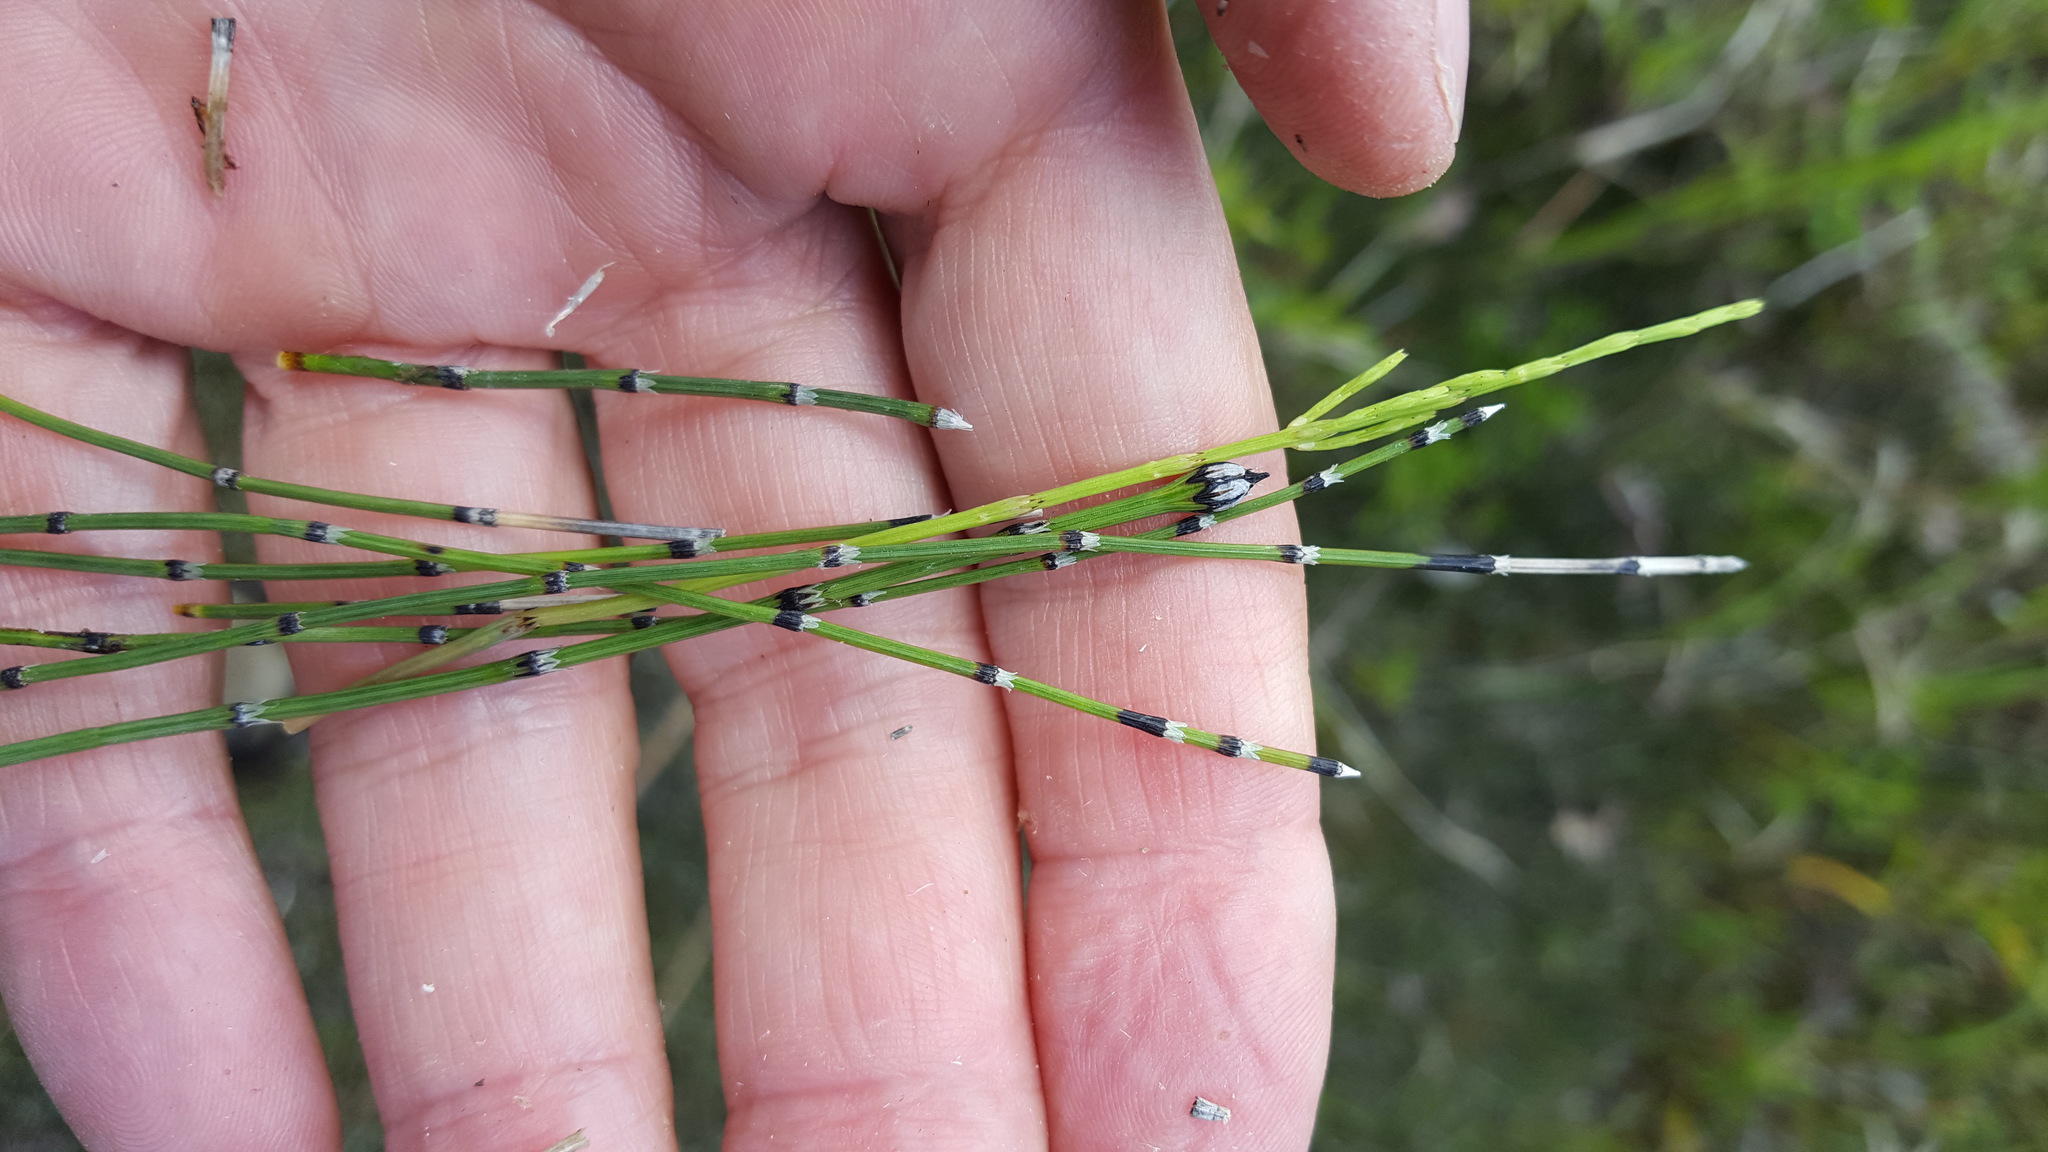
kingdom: Plantae
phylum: Tracheophyta
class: Polypodiopsida
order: Equisetales
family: Equisetaceae
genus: Equisetum
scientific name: Equisetum variegatum
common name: Variegated horsetail
